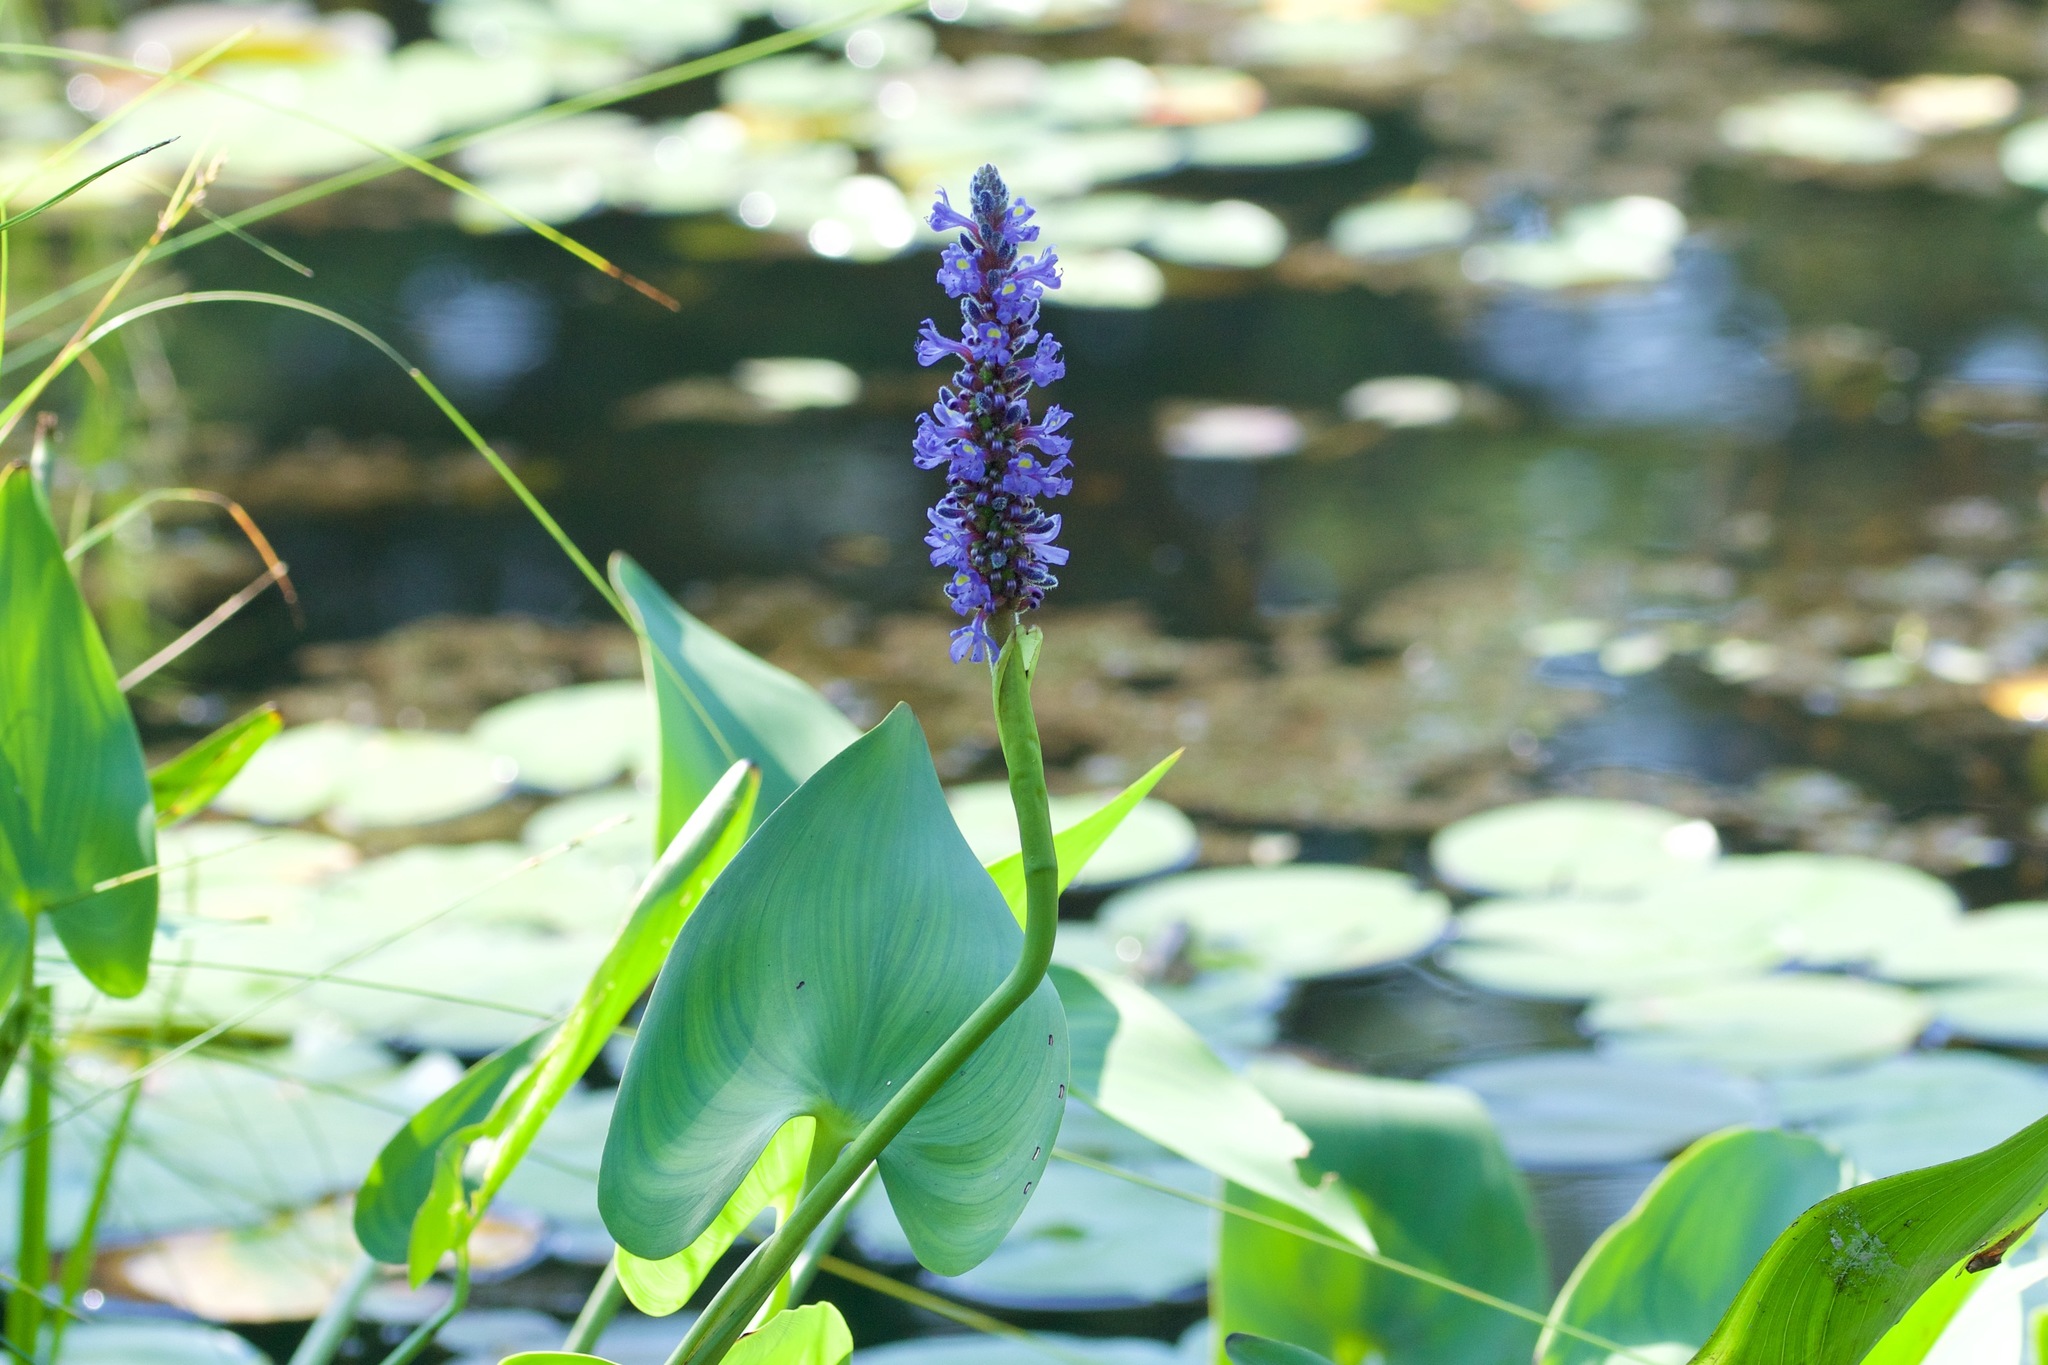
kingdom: Plantae
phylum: Tracheophyta
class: Liliopsida
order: Commelinales
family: Pontederiaceae
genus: Pontederia
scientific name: Pontederia cordata
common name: Pickerelweed
